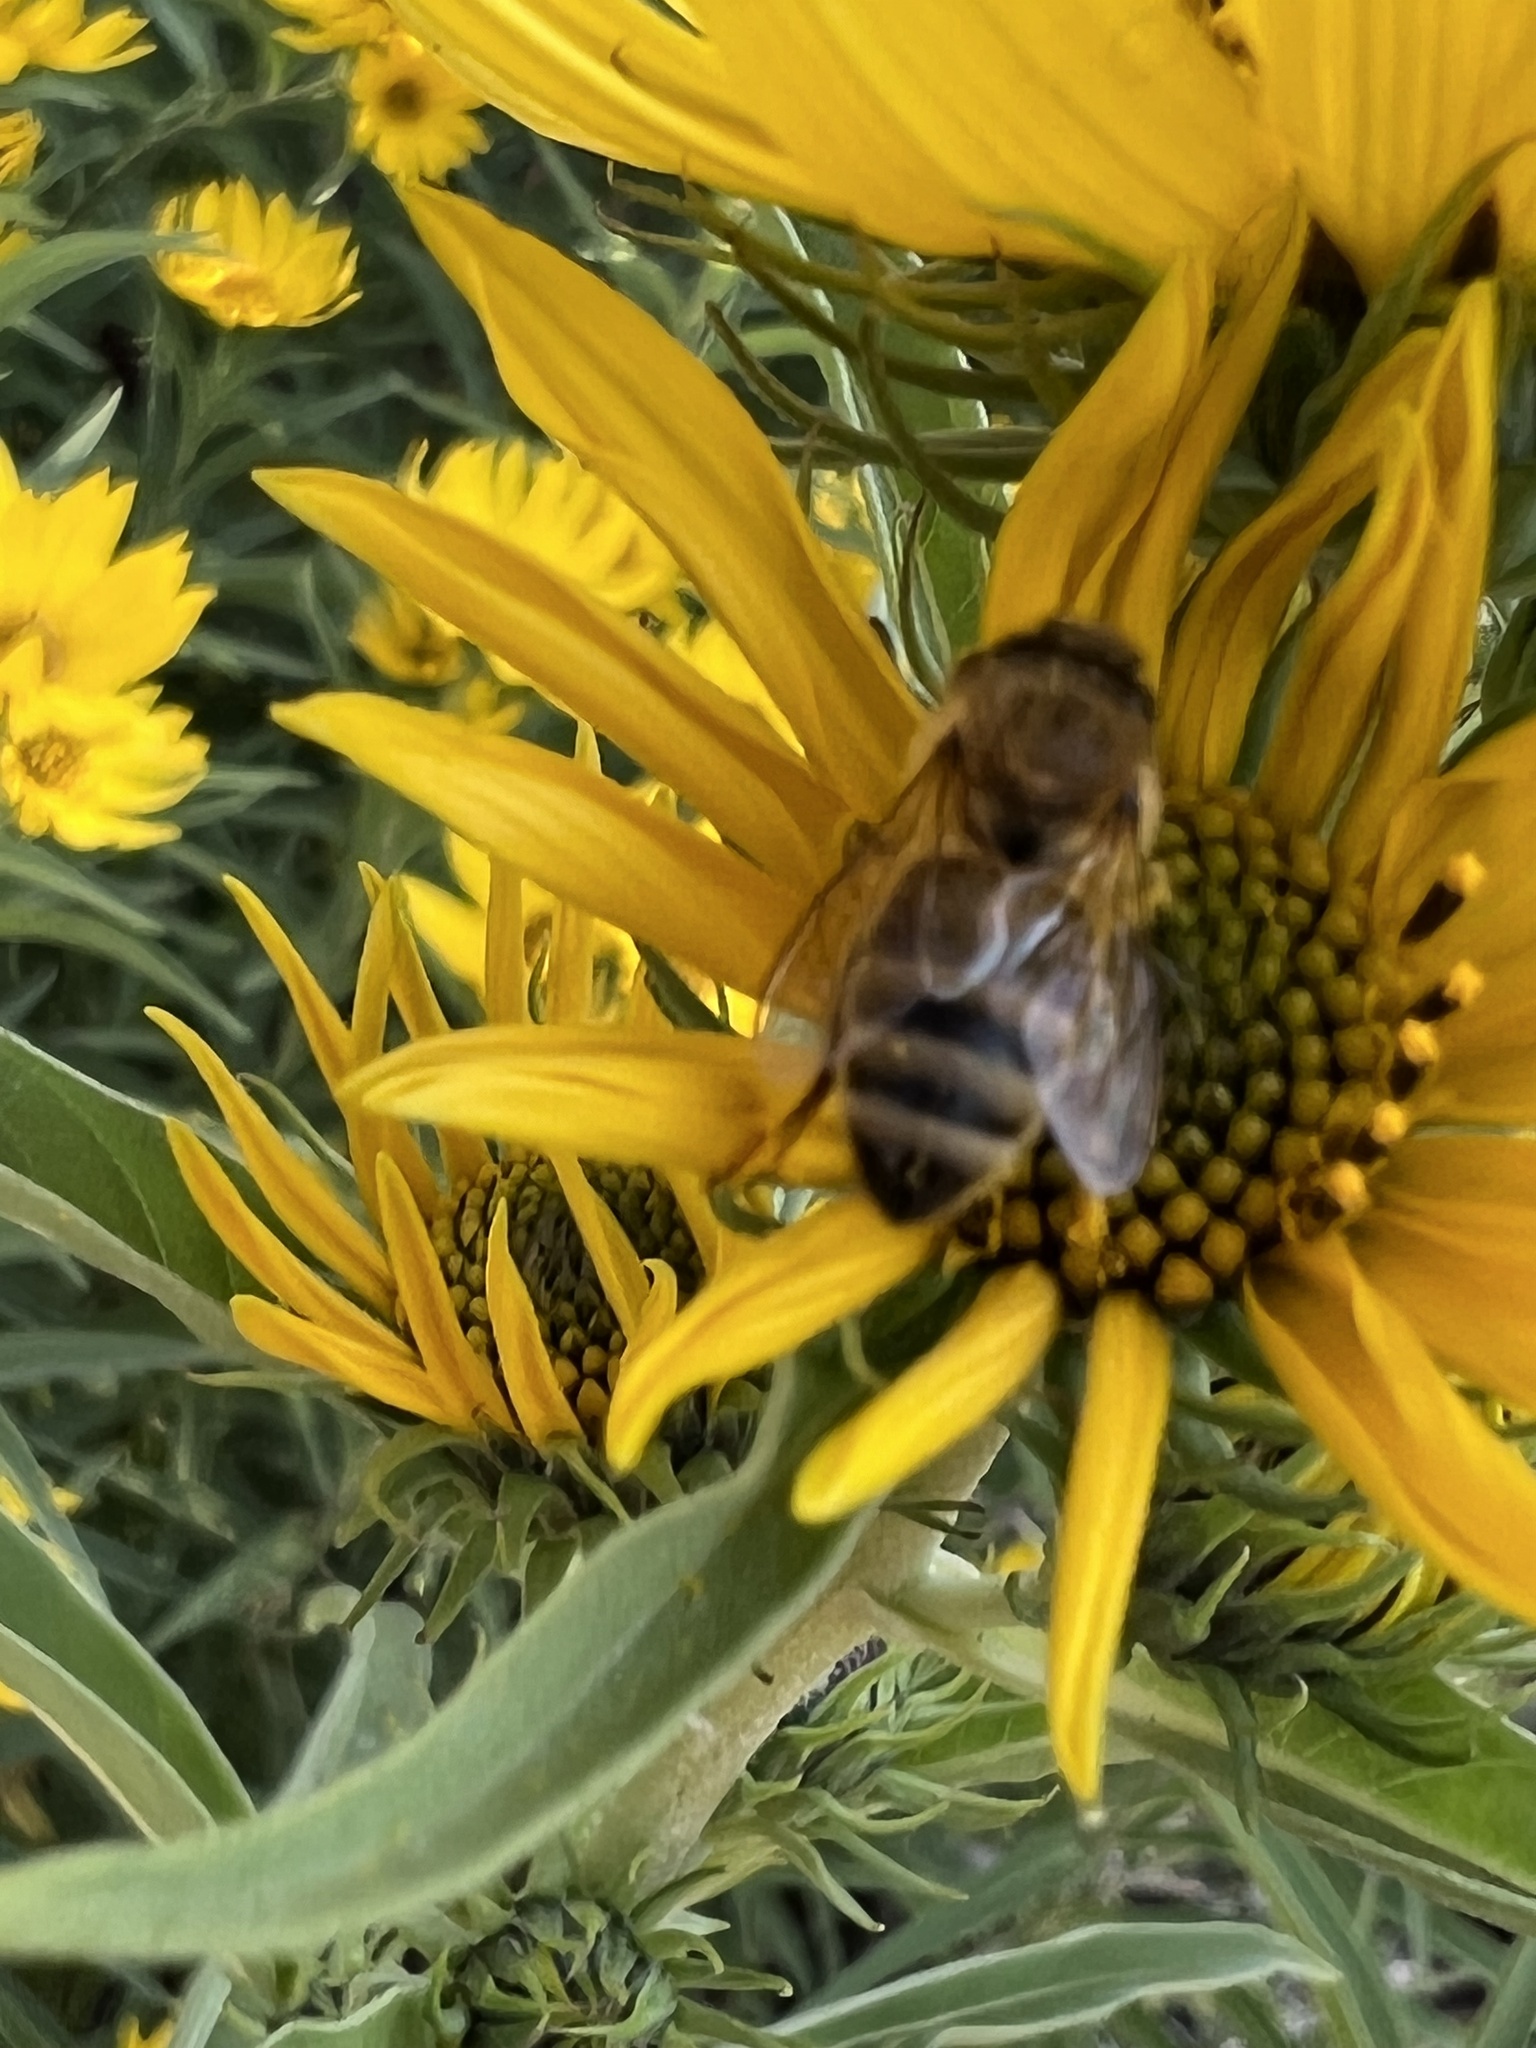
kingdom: Animalia
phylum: Arthropoda
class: Insecta
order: Hymenoptera
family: Apidae
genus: Apis
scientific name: Apis mellifera
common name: Honey bee
